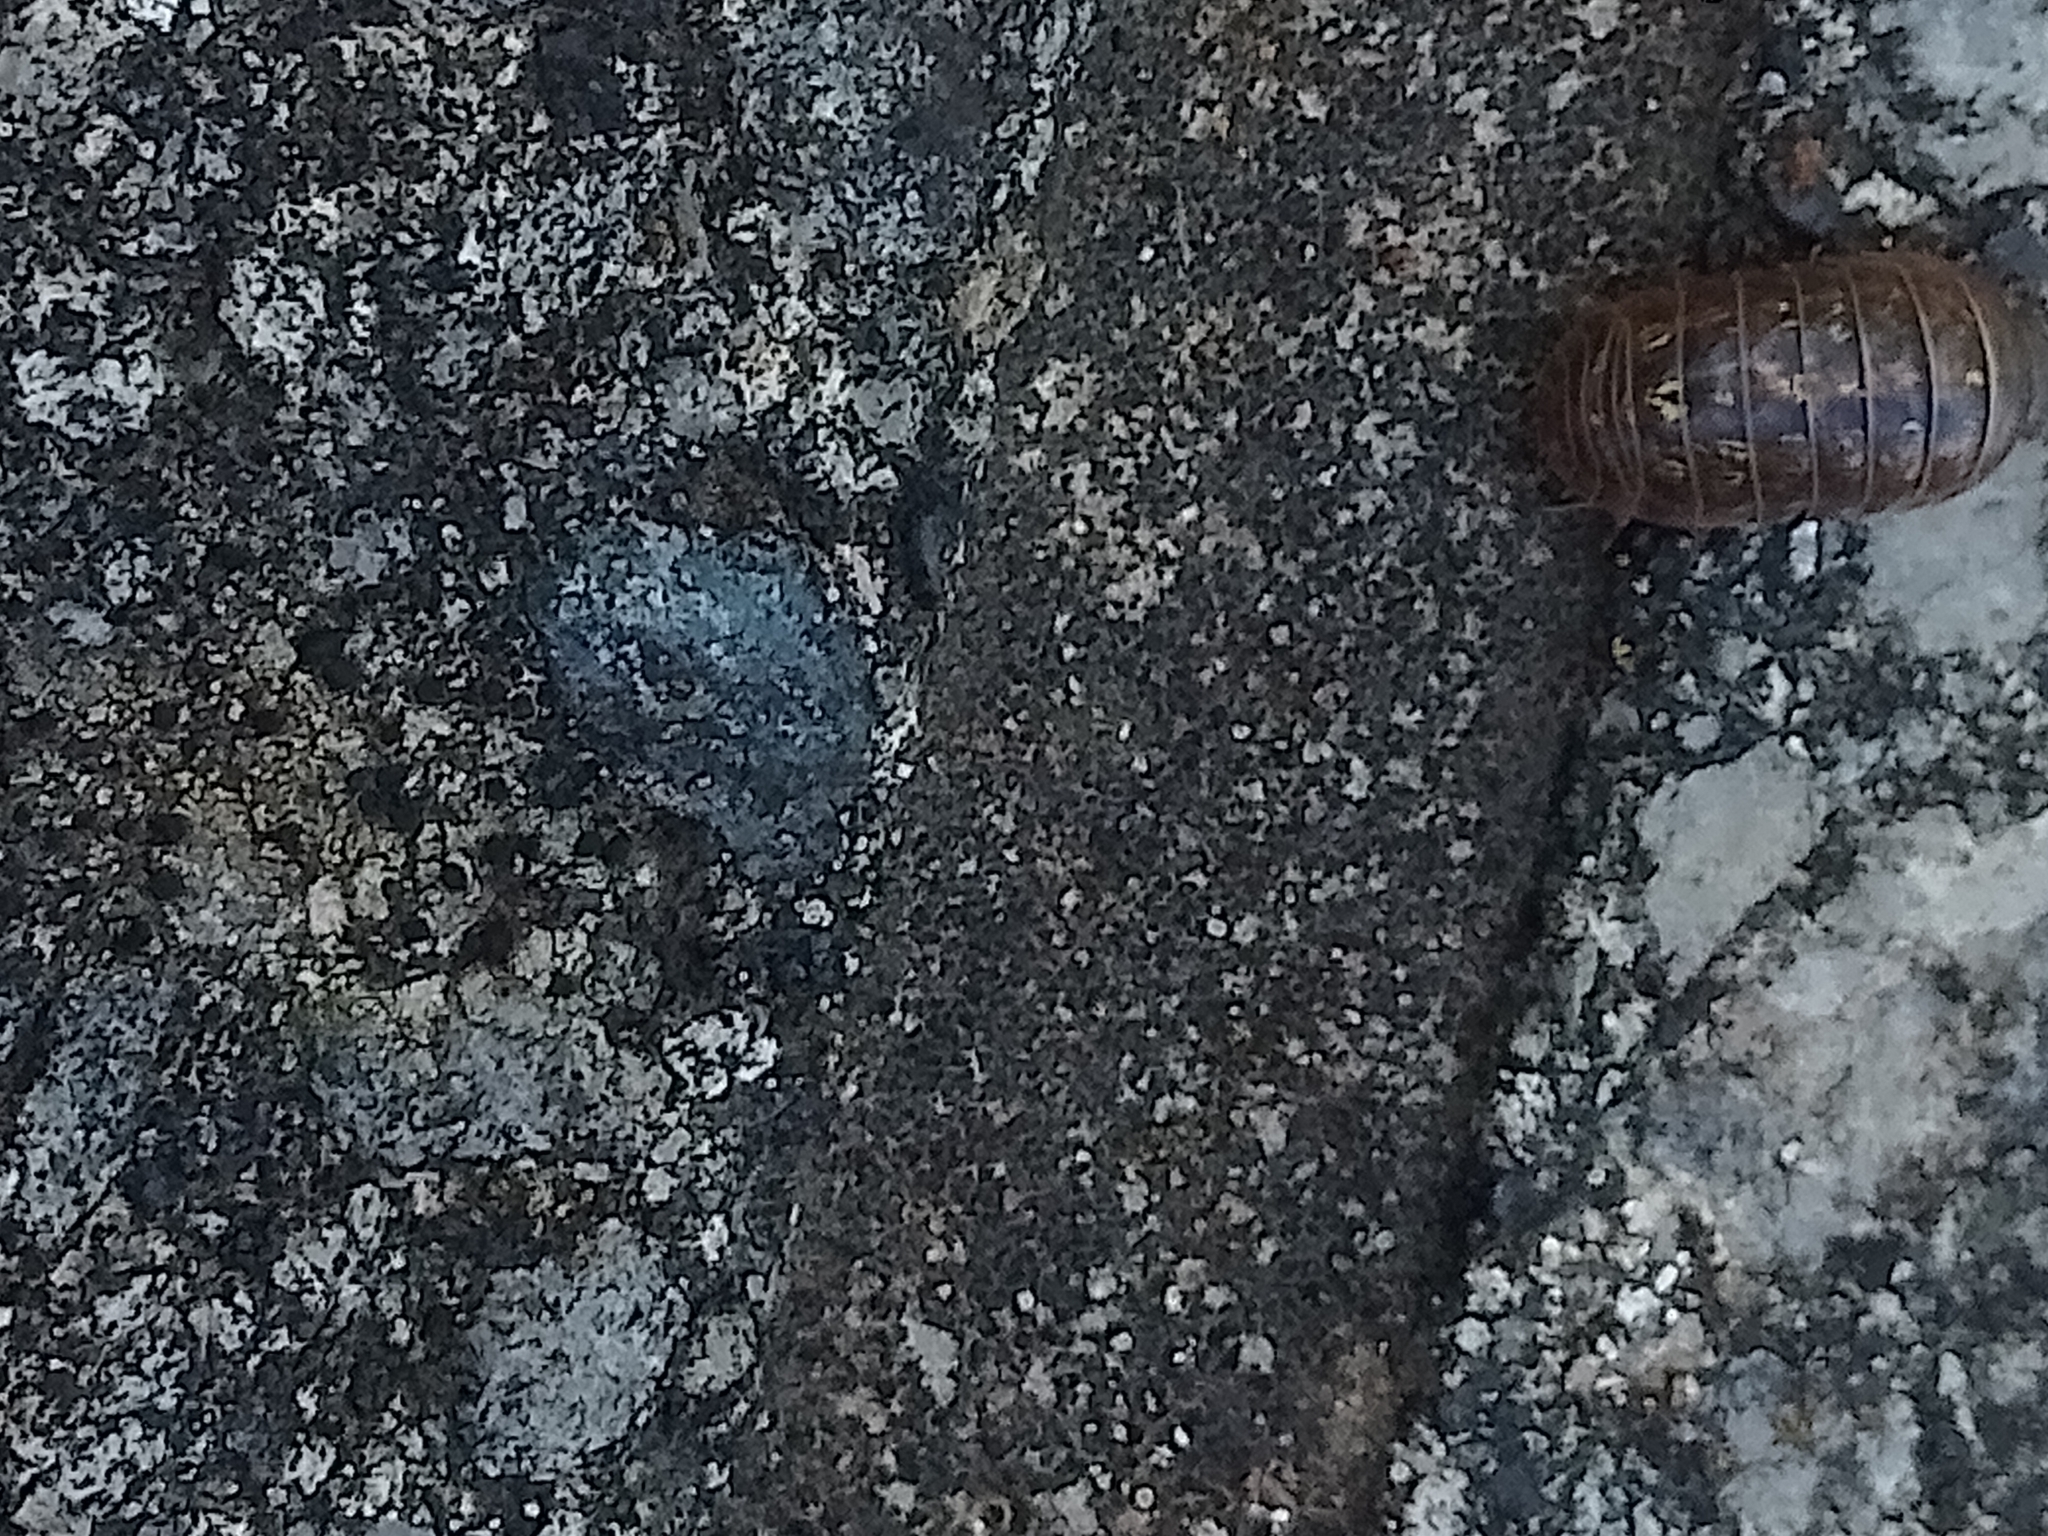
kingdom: Animalia
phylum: Arthropoda
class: Malacostraca
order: Isopoda
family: Armadillidiidae
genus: Armadillidium
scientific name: Armadillidium vulgare
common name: Common pill woodlouse
